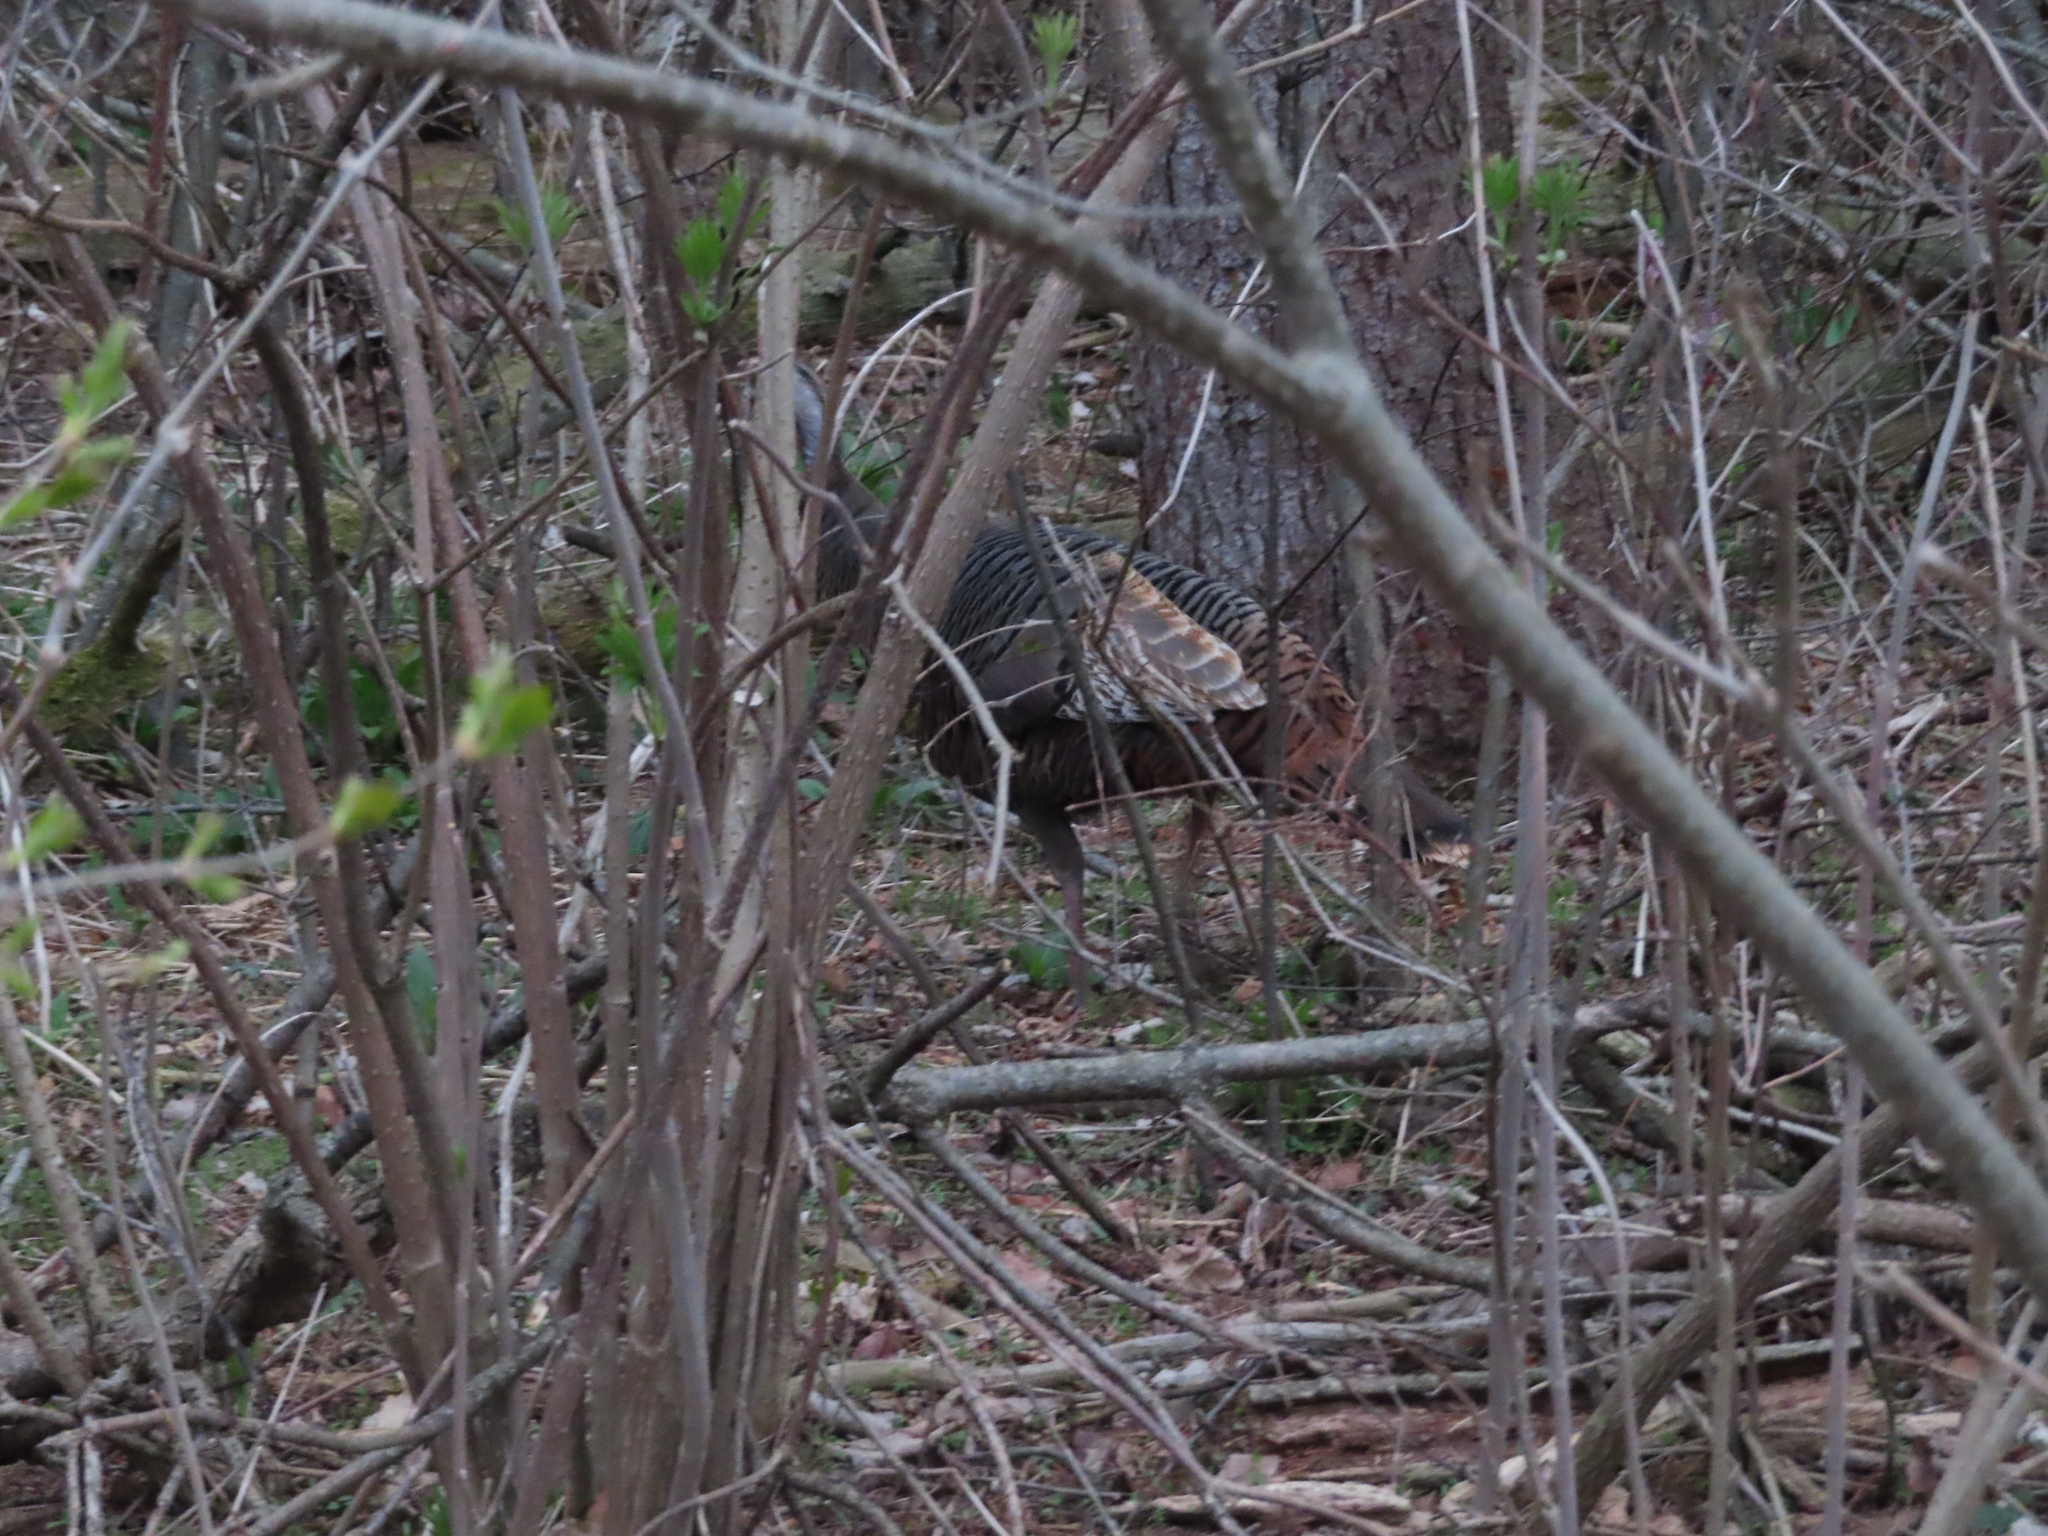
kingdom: Animalia
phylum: Chordata
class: Aves
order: Galliformes
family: Phasianidae
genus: Meleagris
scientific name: Meleagris gallopavo
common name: Wild turkey
